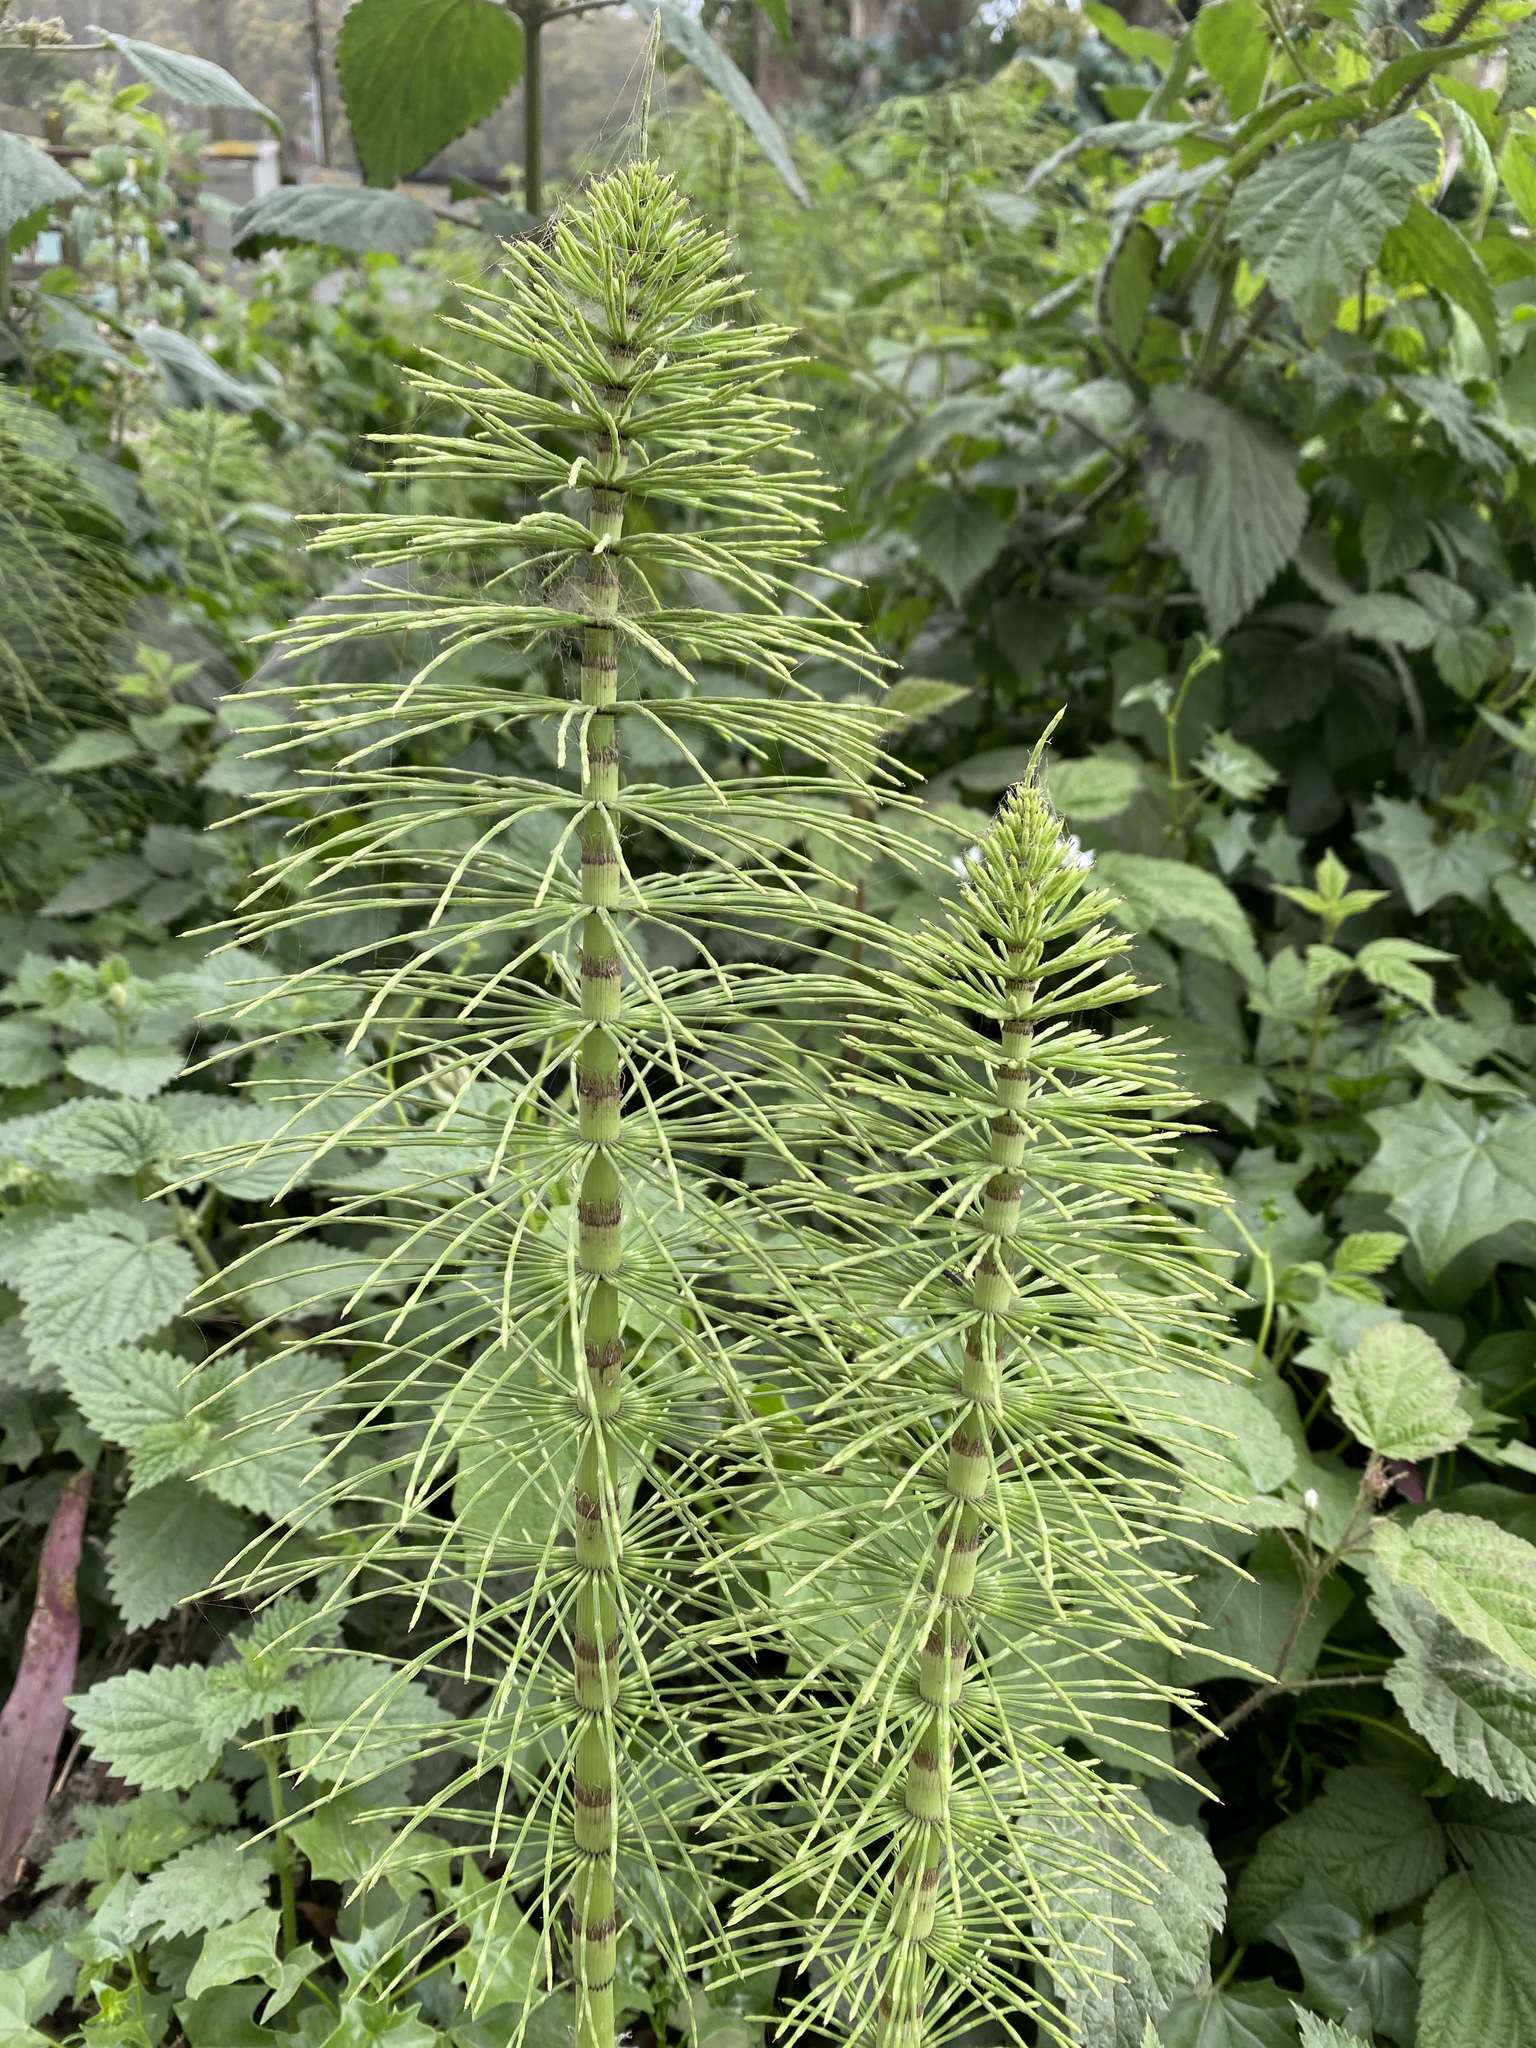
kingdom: Plantae
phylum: Tracheophyta
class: Polypodiopsida
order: Equisetales
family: Equisetaceae
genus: Equisetum
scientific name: Equisetum telmateia
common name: Great horsetail
